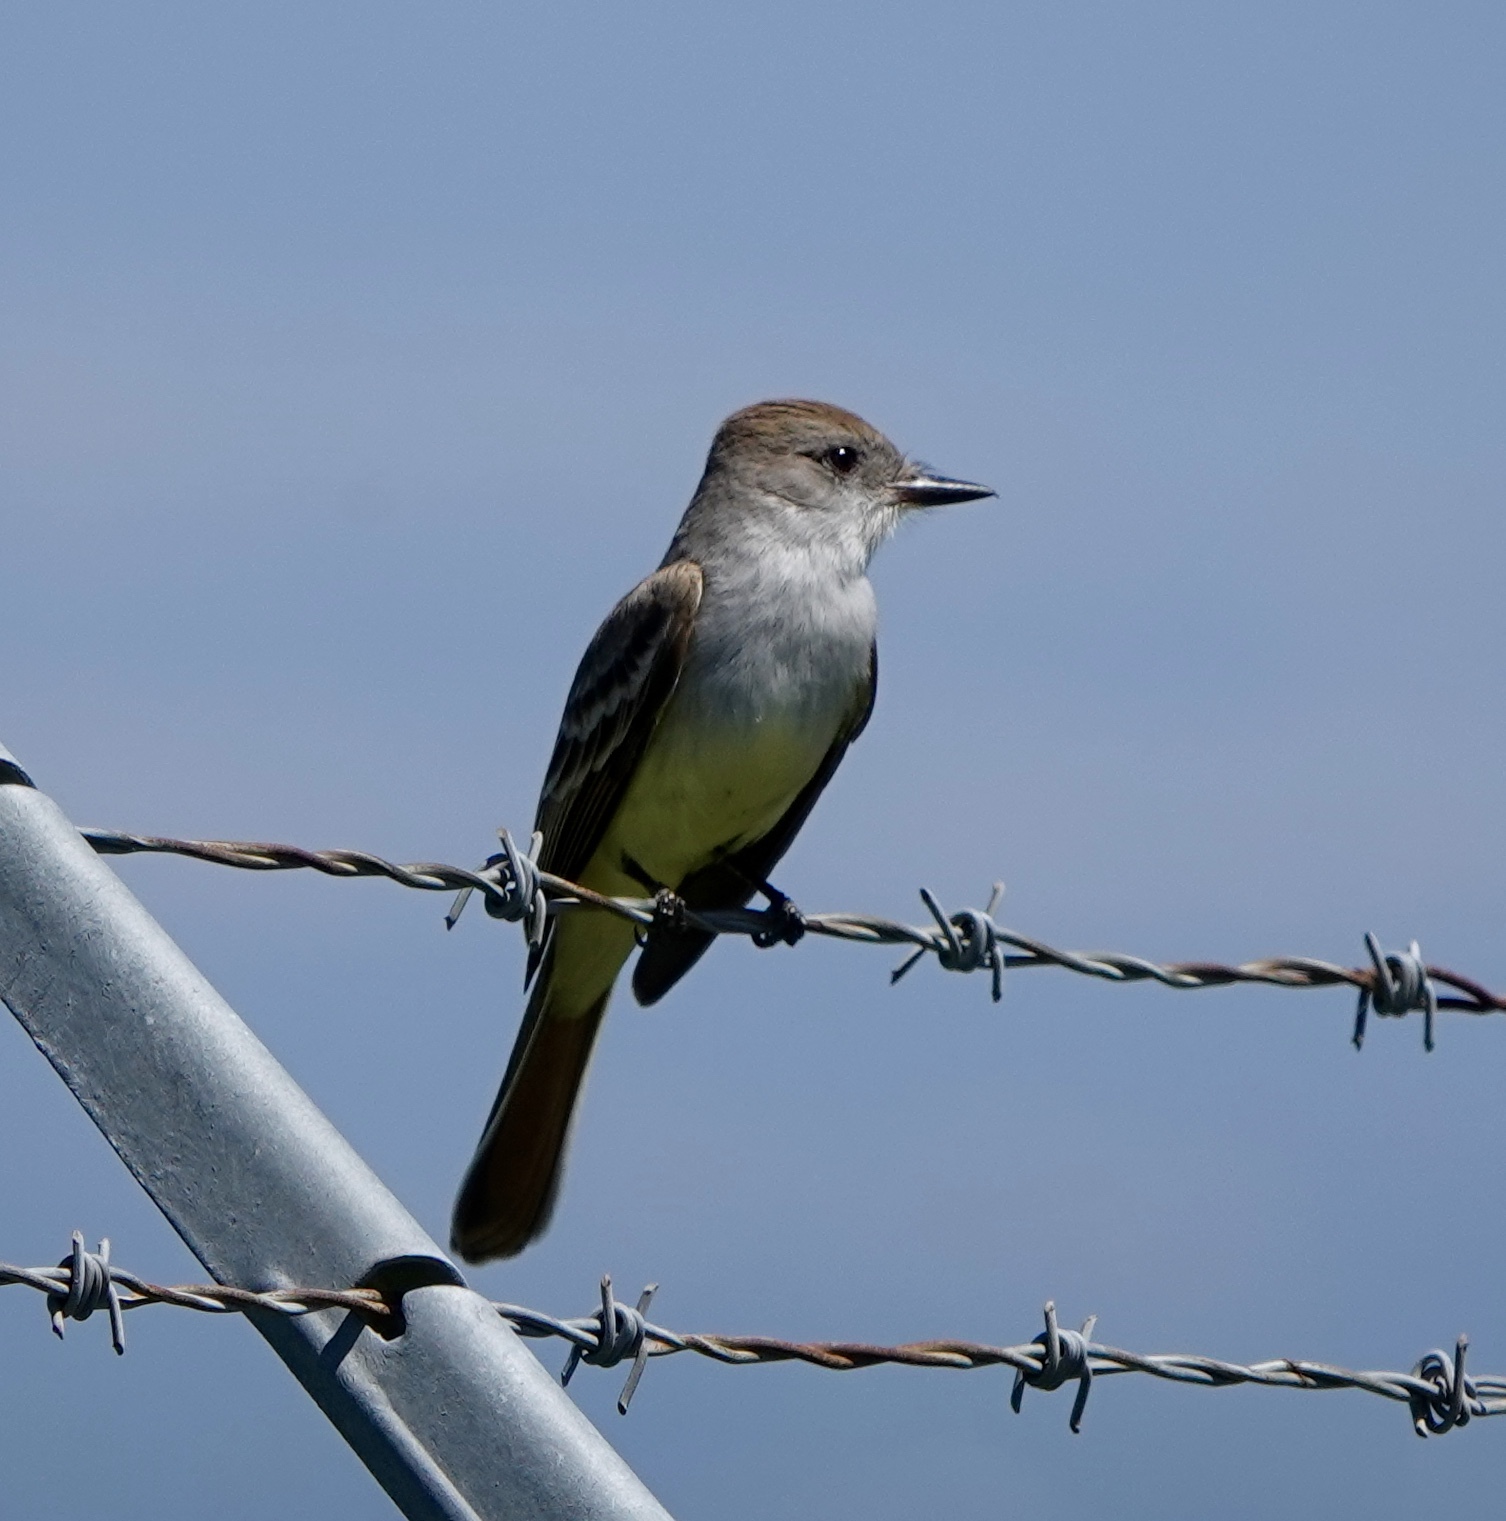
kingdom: Animalia
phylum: Chordata
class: Aves
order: Passeriformes
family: Tyrannidae
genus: Myiarchus
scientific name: Myiarchus cinerascens
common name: Ash-throated flycatcher
